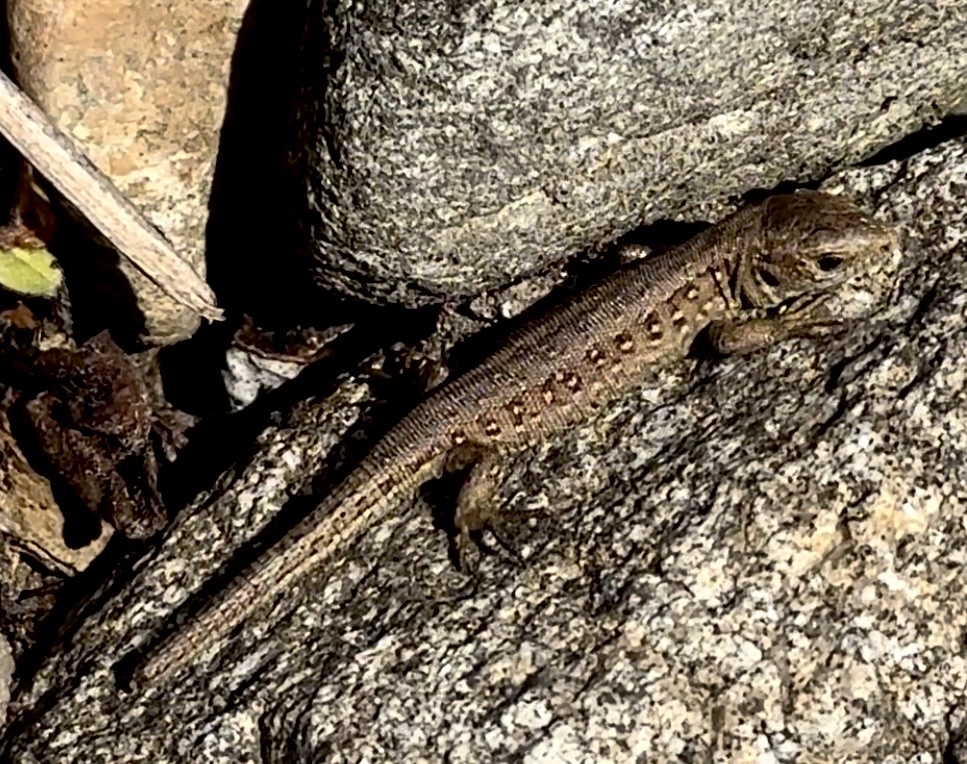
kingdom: Animalia
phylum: Chordata
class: Squamata
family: Lacertidae
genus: Lacerta
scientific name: Lacerta agilis
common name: Sand lizard
